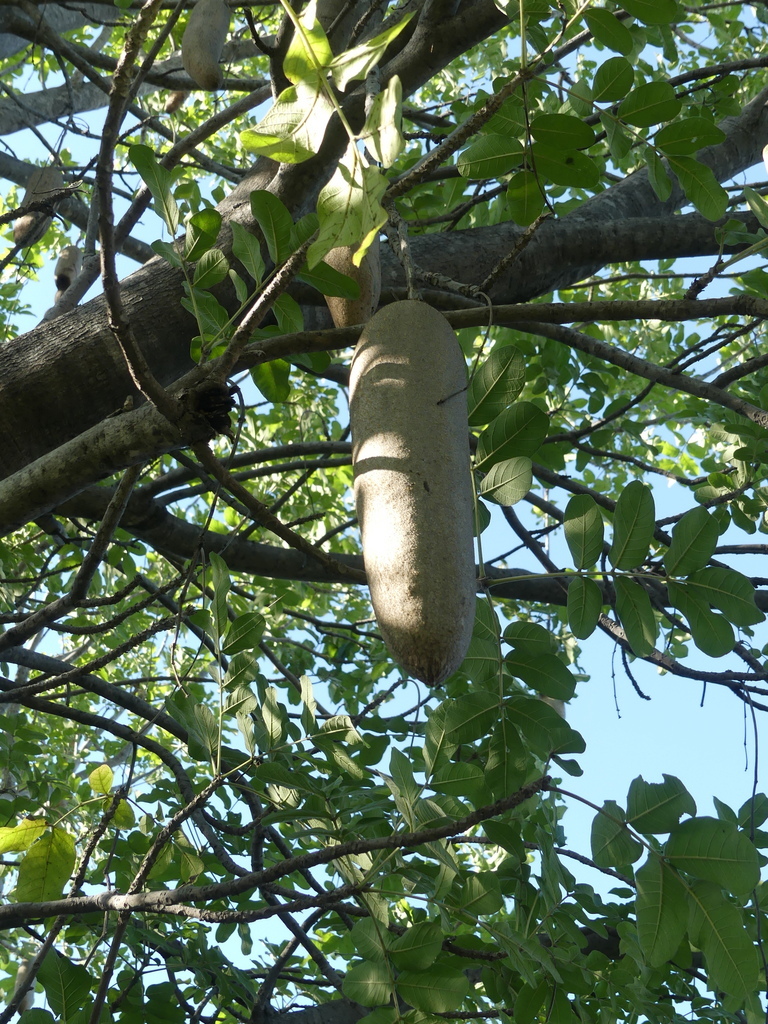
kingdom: Plantae
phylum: Tracheophyta
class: Magnoliopsida
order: Lamiales
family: Bignoniaceae
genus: Kigelia
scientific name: Kigelia africana
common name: Sausage tree
